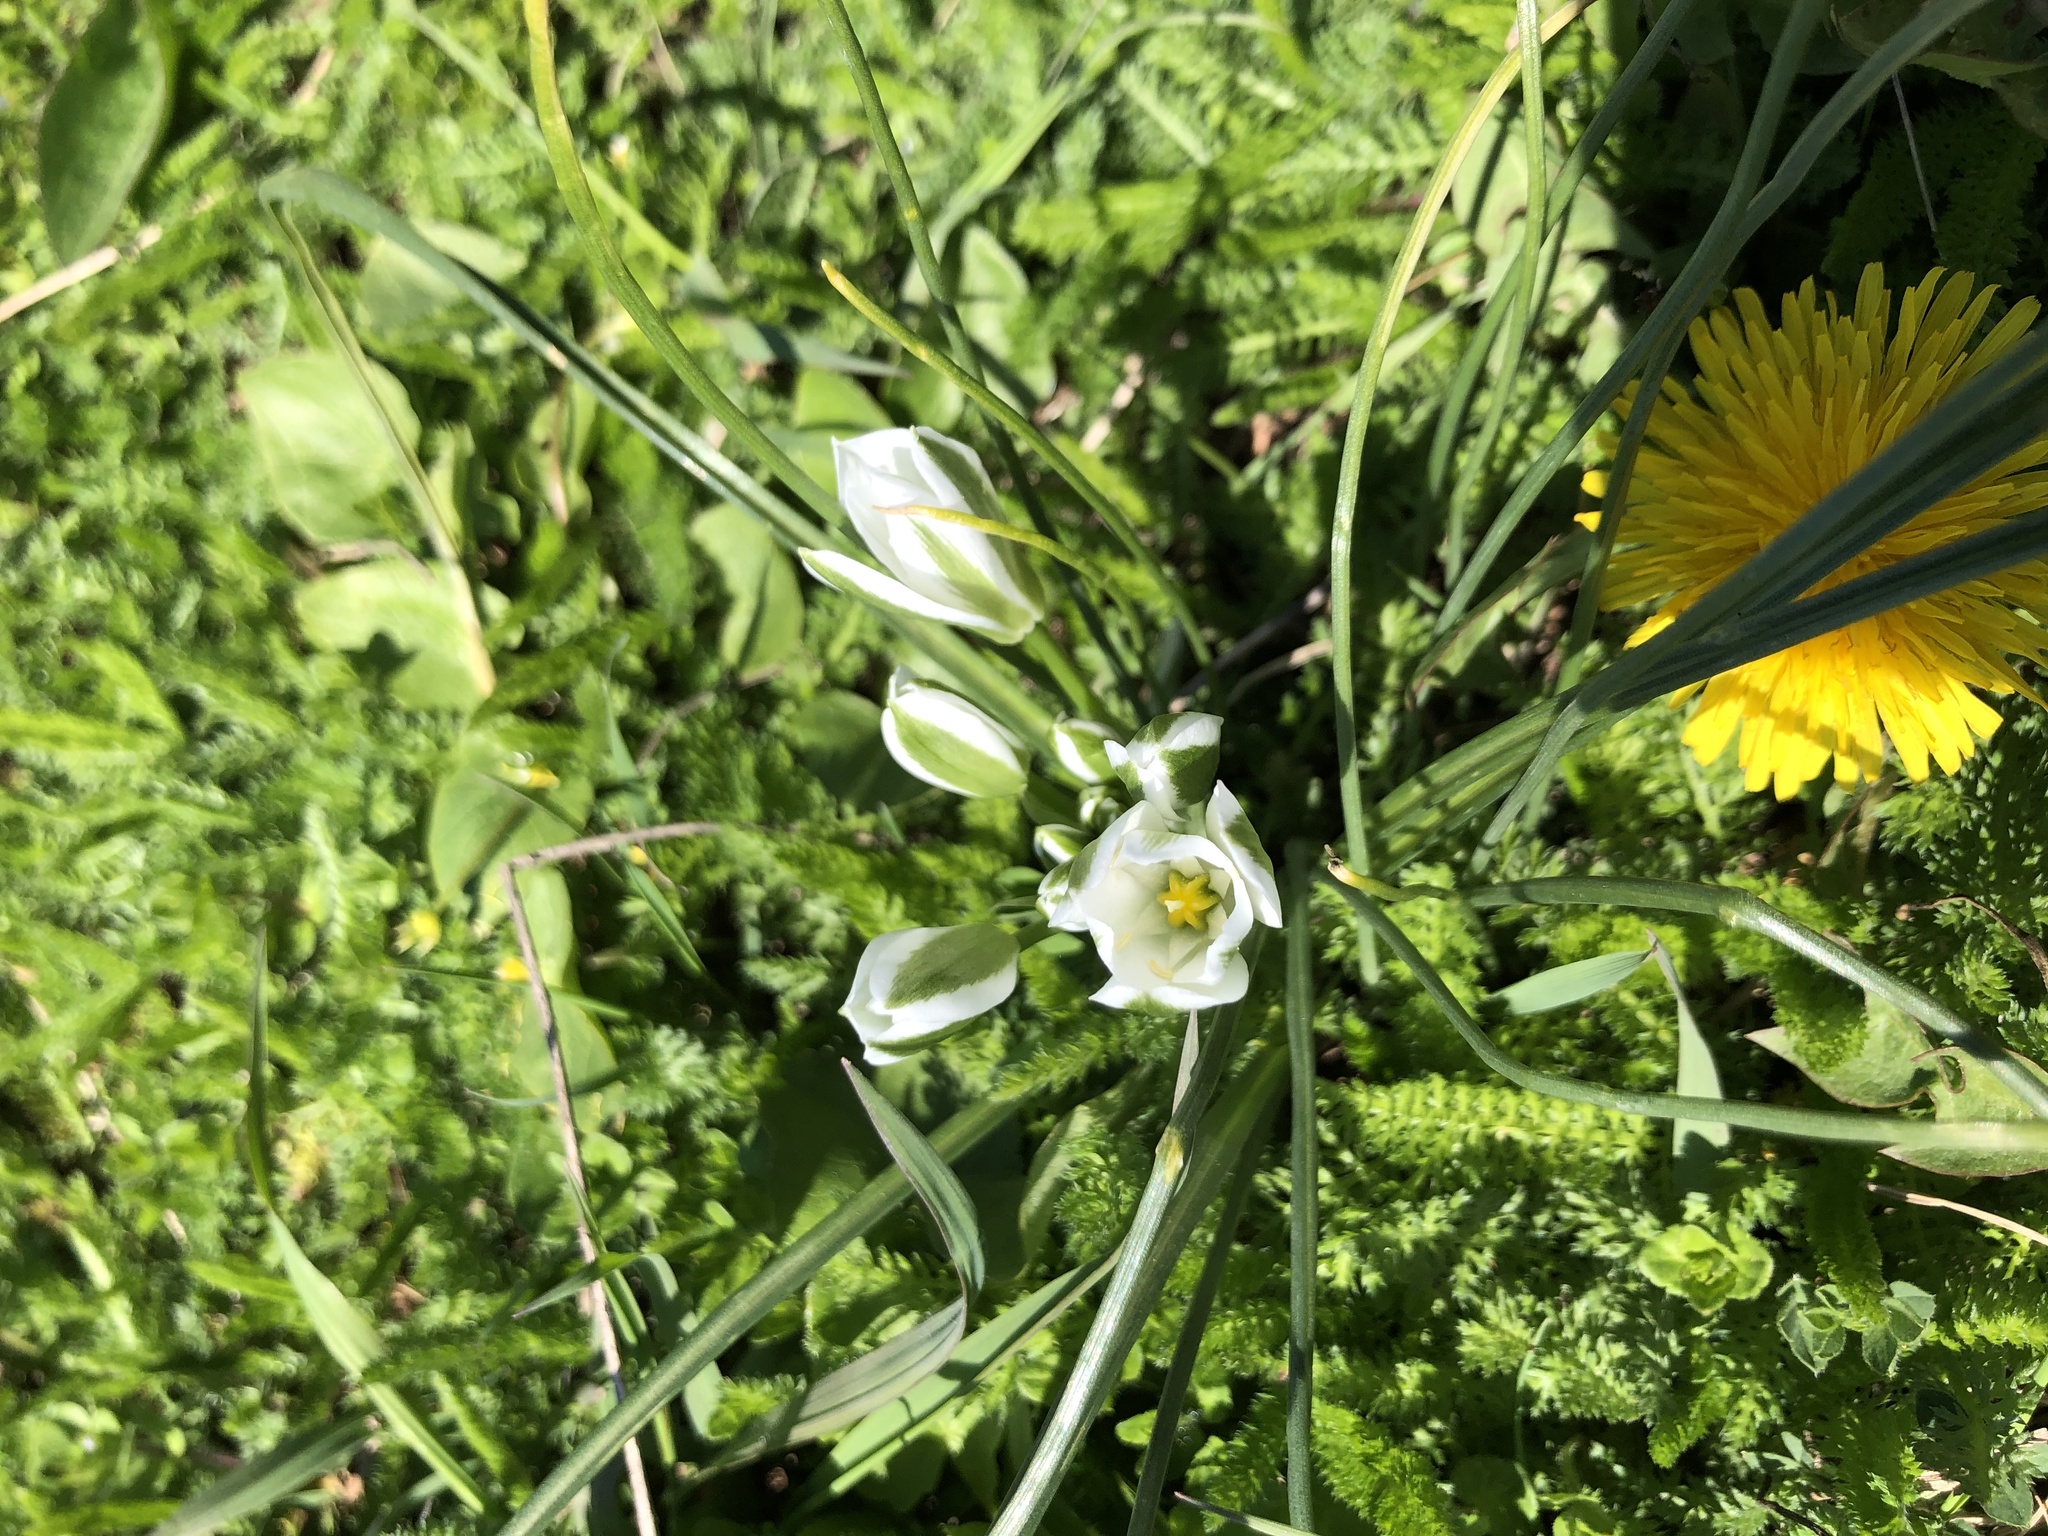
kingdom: Plantae
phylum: Tracheophyta
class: Liliopsida
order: Asparagales
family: Asparagaceae
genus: Ornithogalum
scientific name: Ornithogalum umbellatum
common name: Garden star-of-bethlehem
